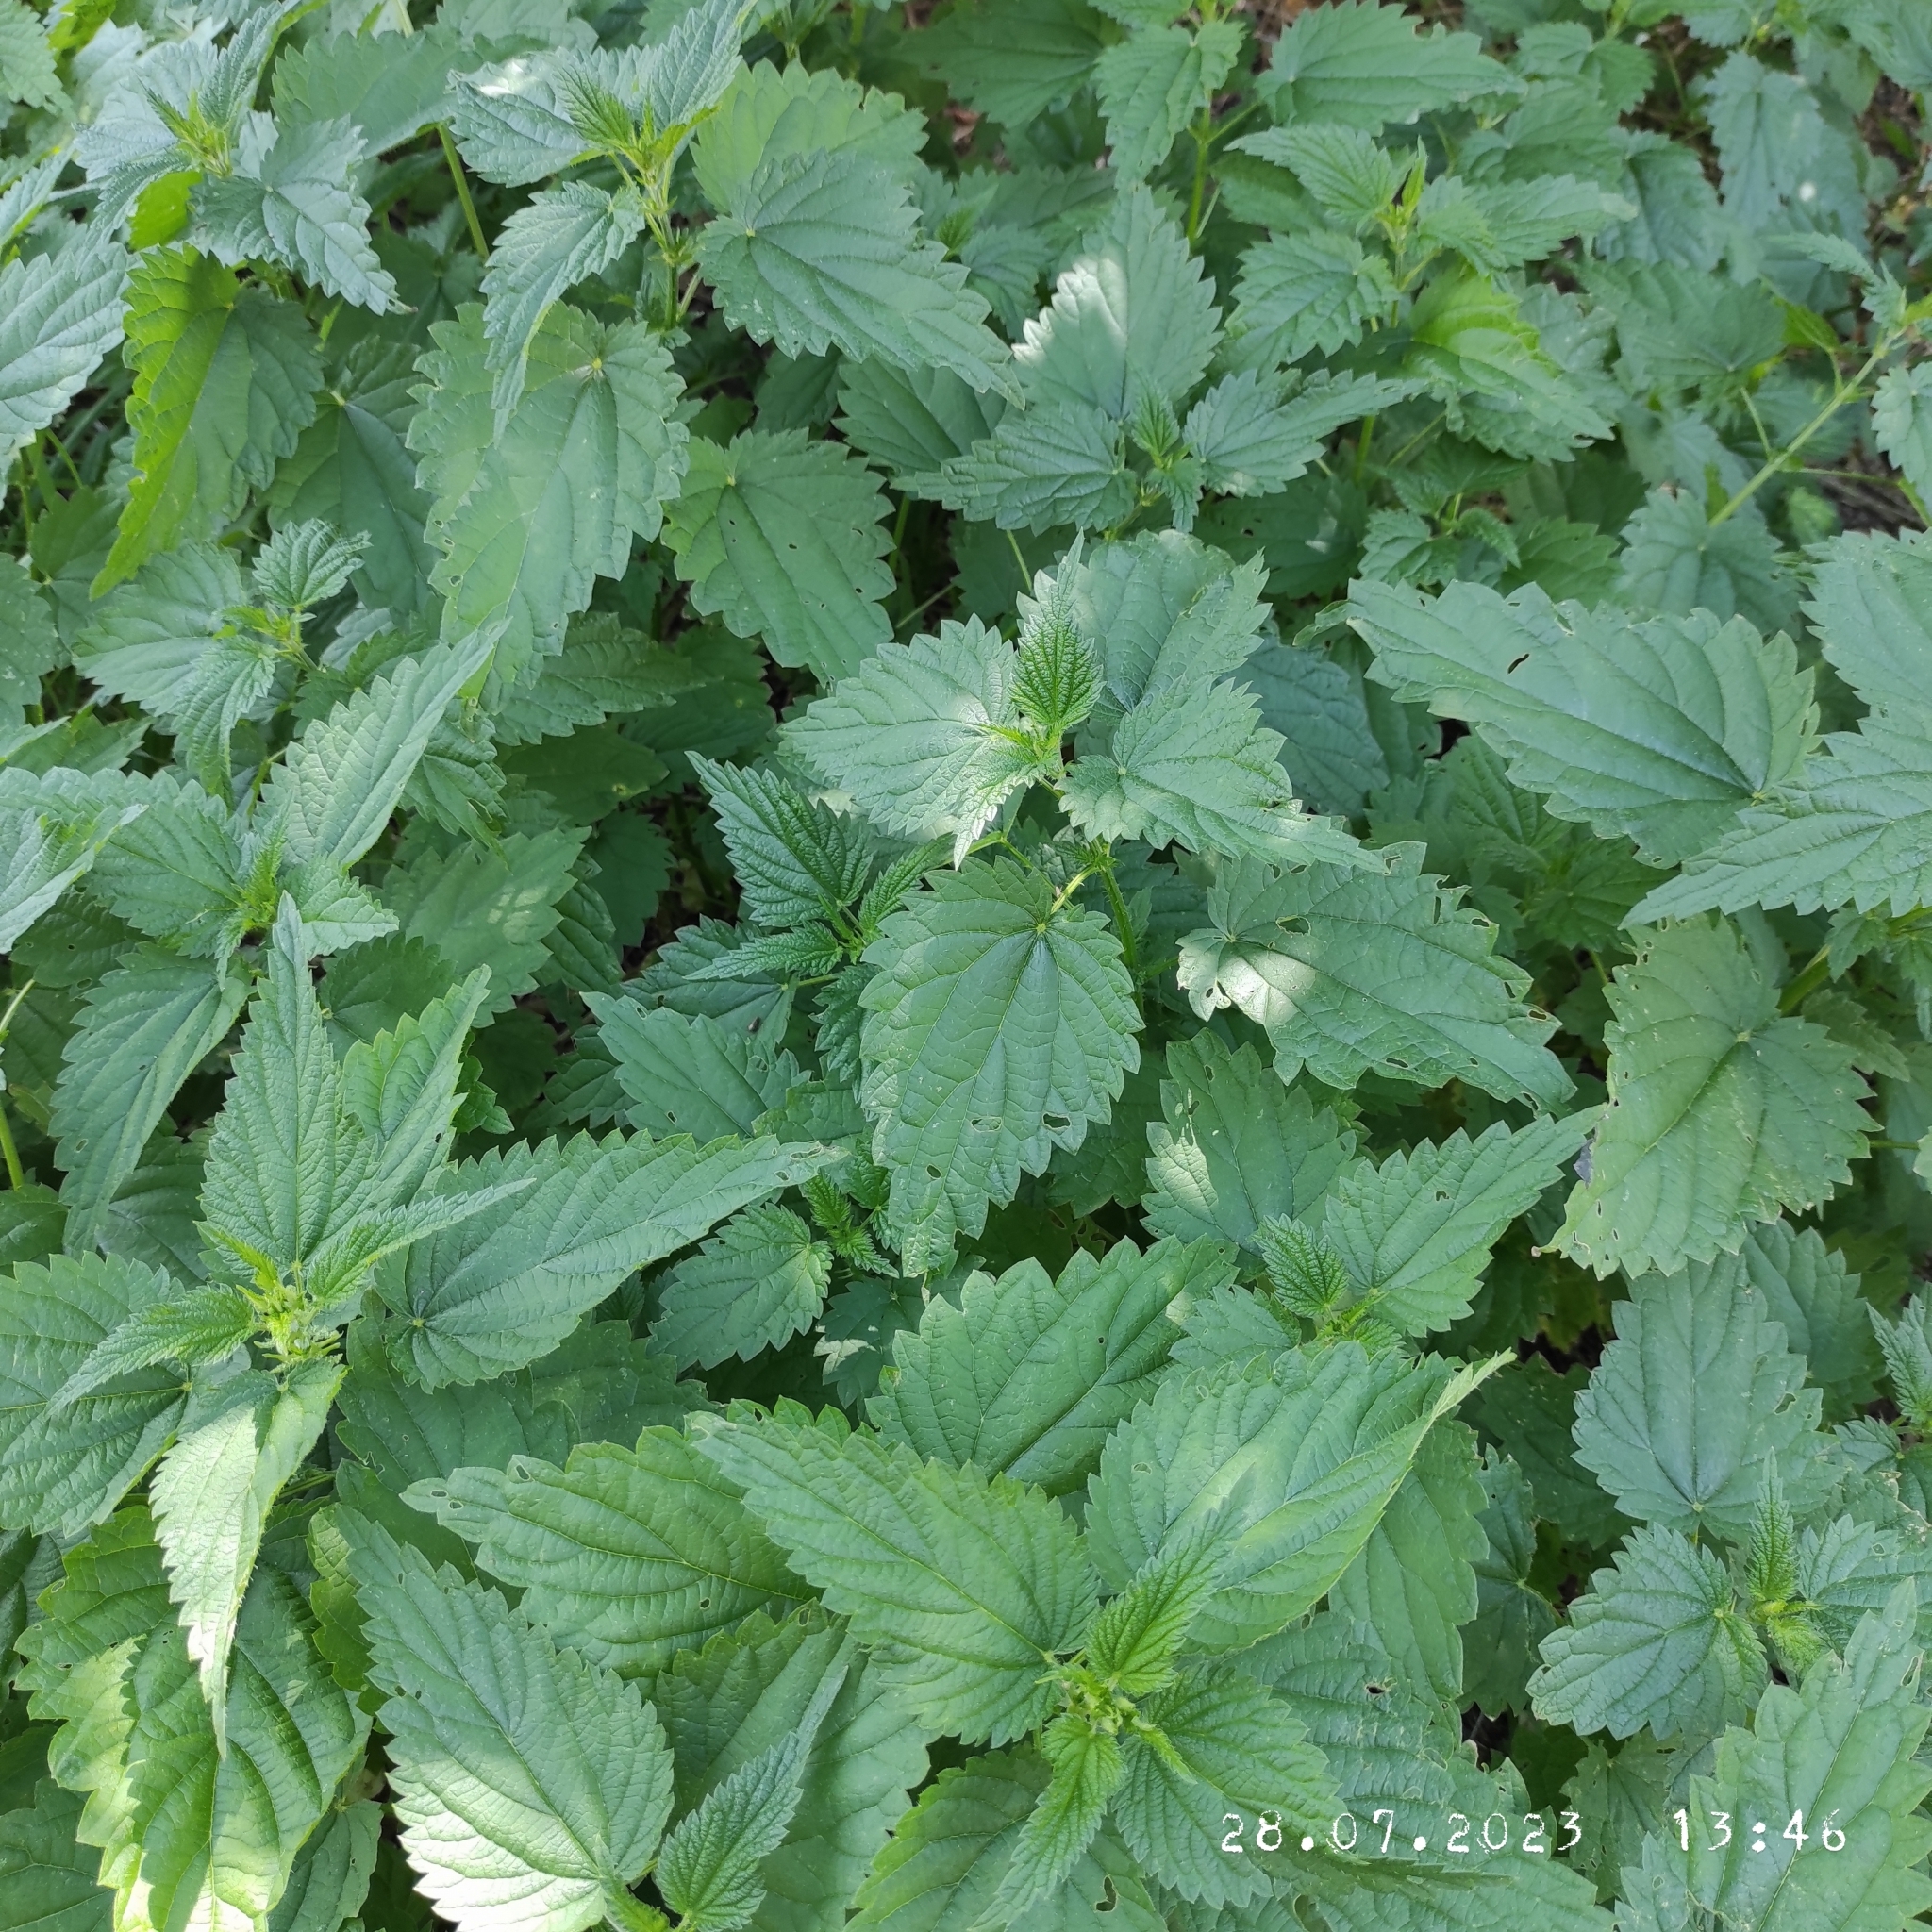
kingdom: Plantae
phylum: Tracheophyta
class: Magnoliopsida
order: Rosales
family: Urticaceae
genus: Urtica
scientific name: Urtica dioica
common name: Common nettle
